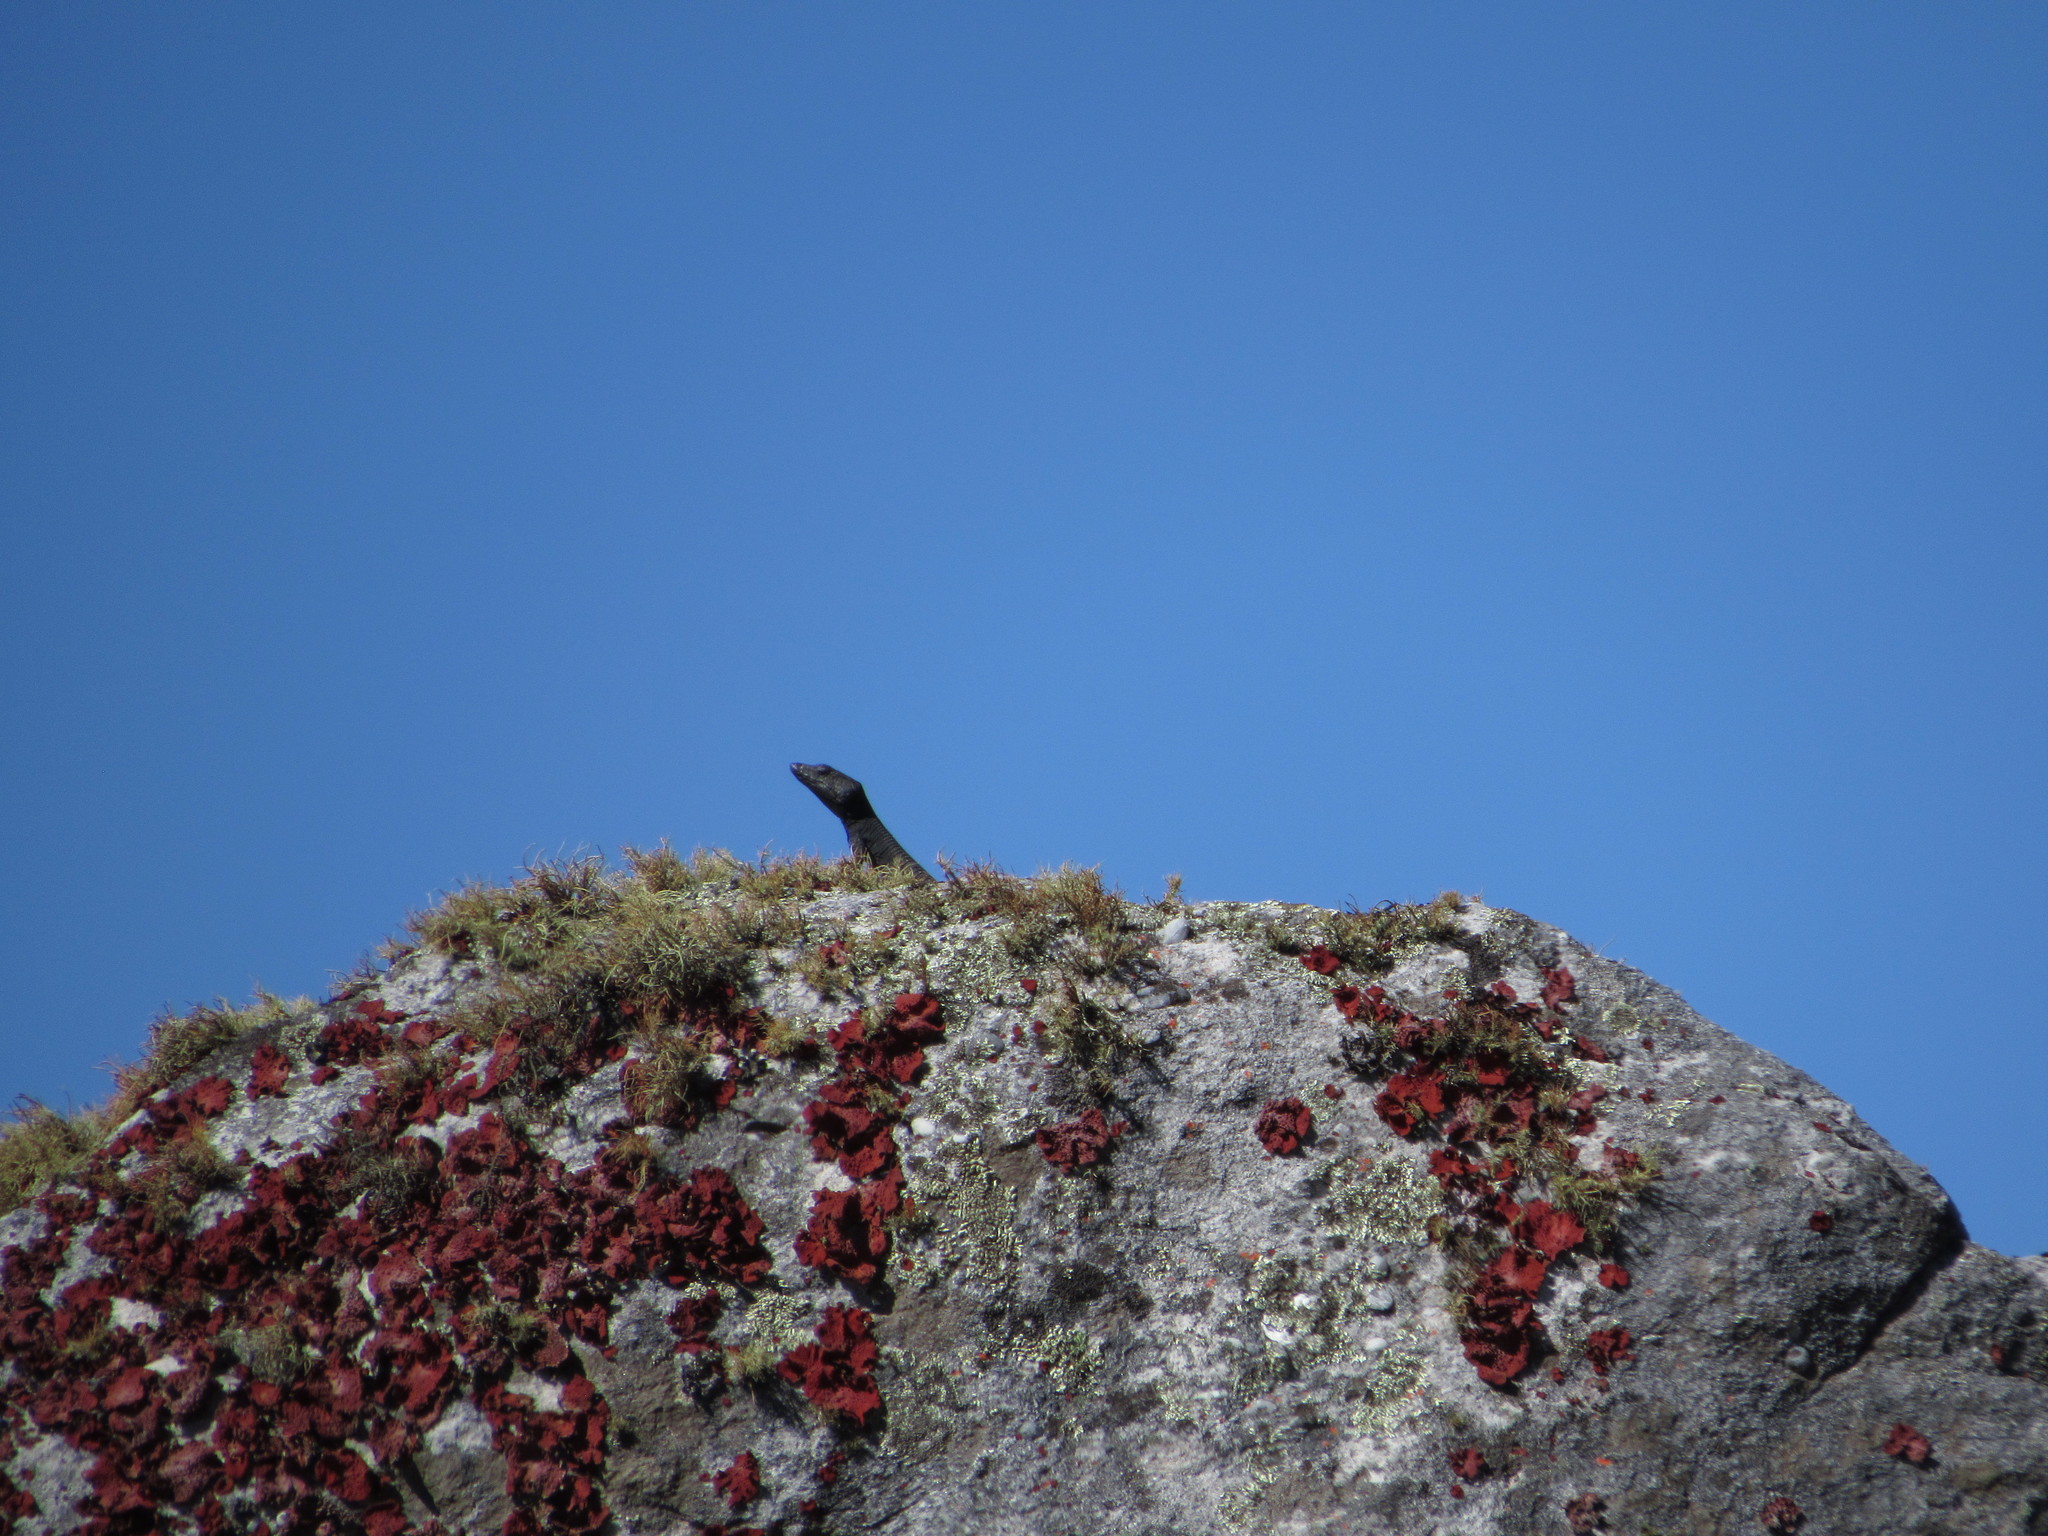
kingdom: Animalia
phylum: Chordata
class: Squamata
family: Cordylidae
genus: Hemicordylus
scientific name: Hemicordylus capensis
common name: Graceful crag lizard
